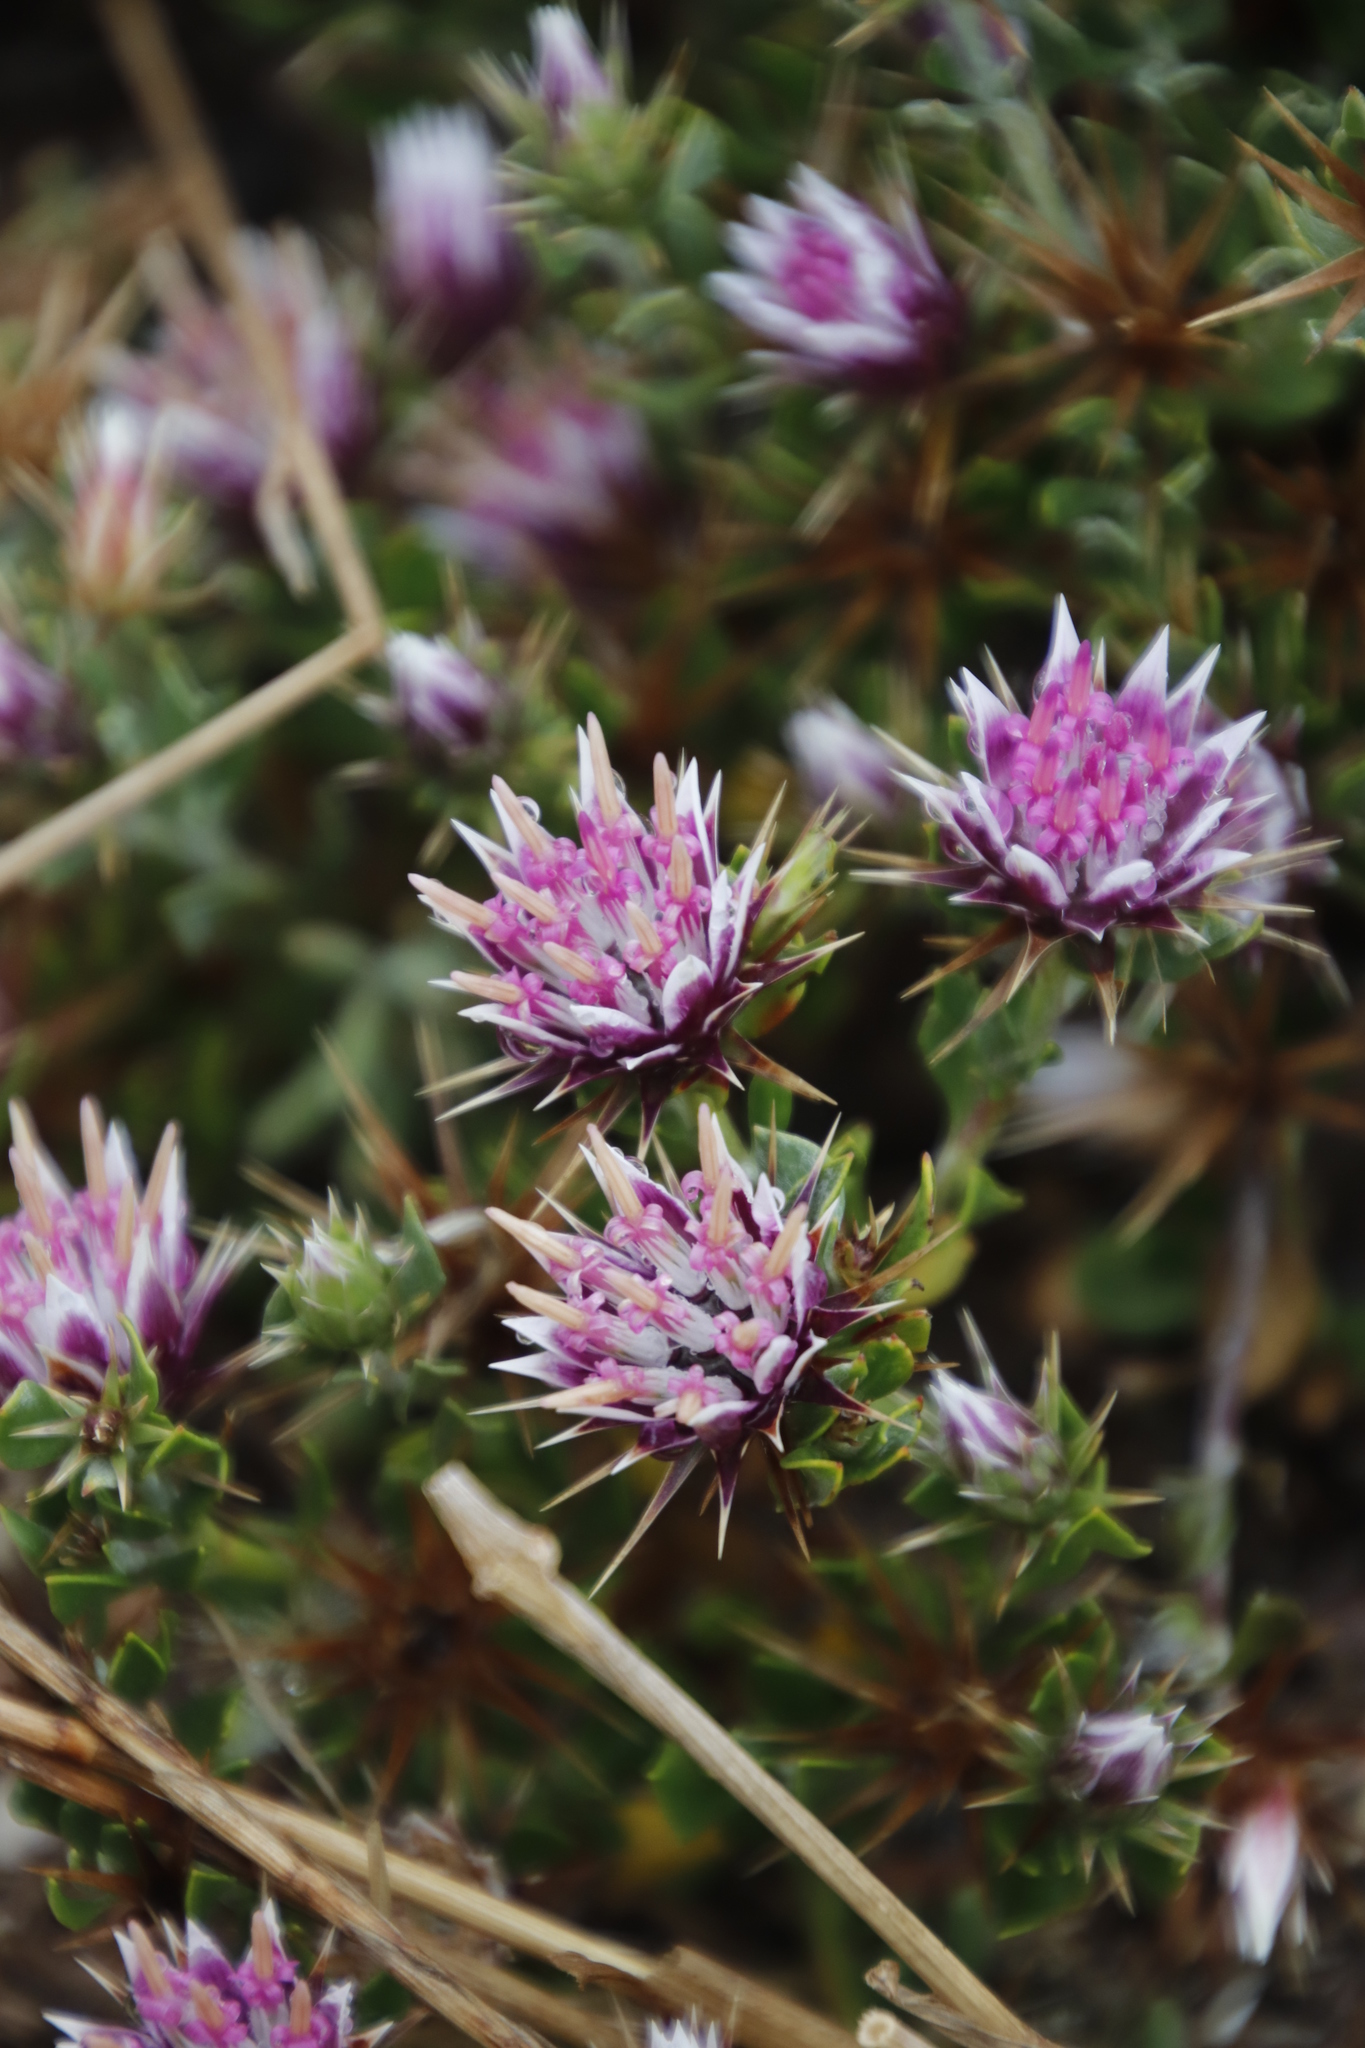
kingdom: Plantae
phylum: Tracheophyta
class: Magnoliopsida
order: Asterales
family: Asteraceae
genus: Macledium
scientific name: Macledium spinosum
